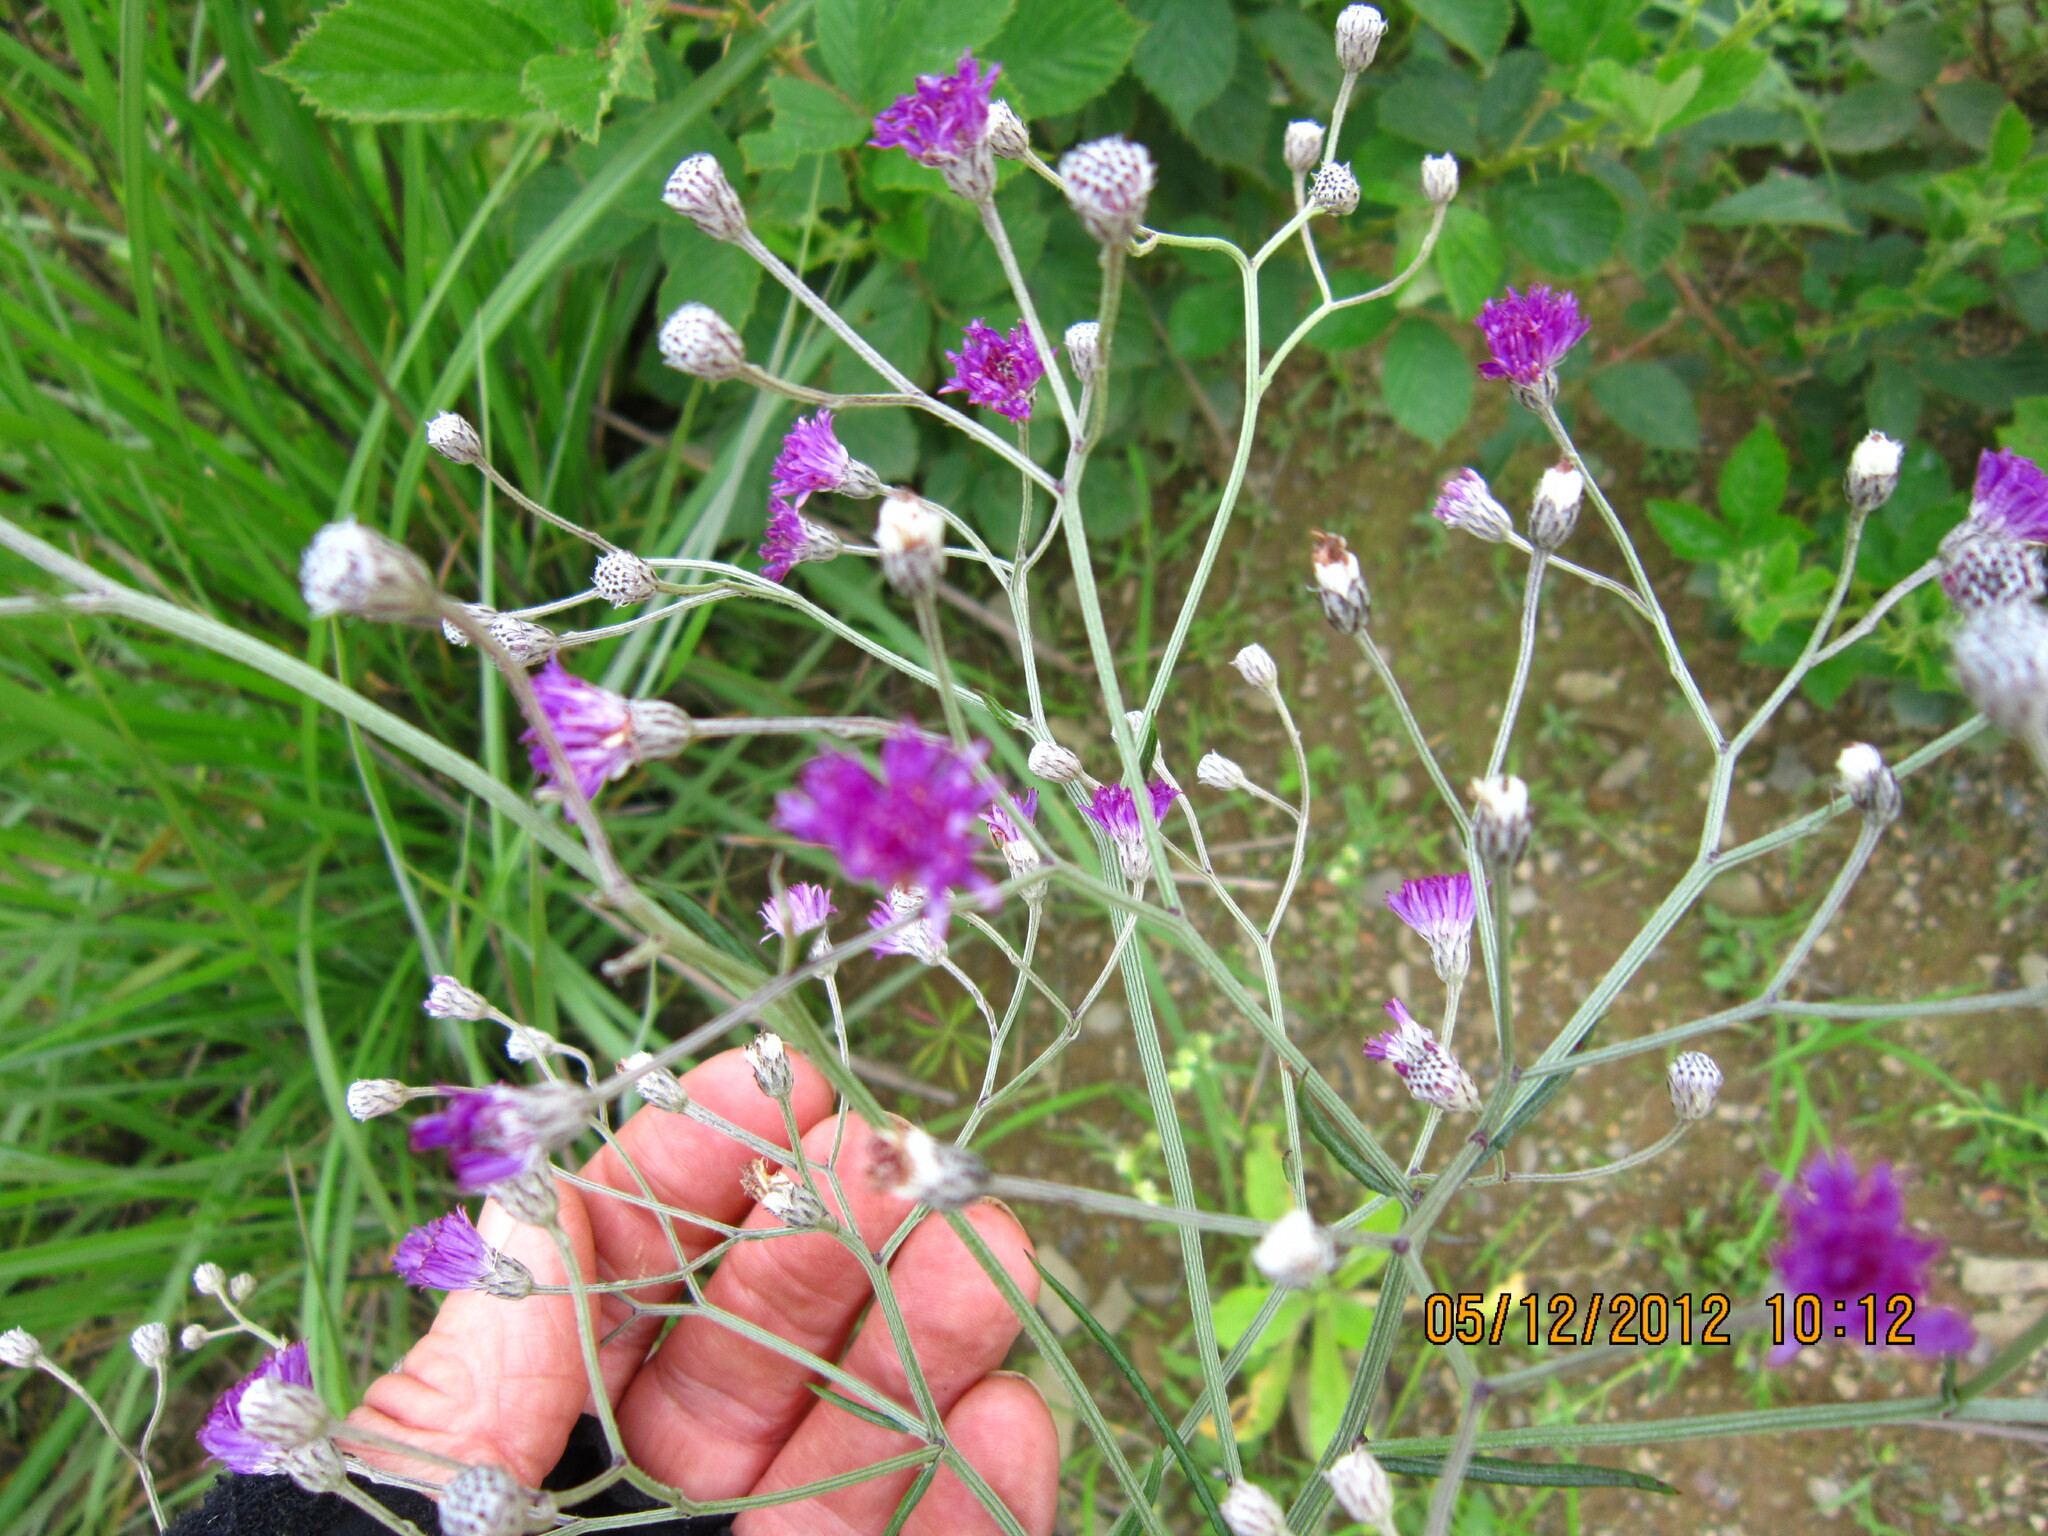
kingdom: Plantae
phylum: Tracheophyta
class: Magnoliopsida
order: Asterales
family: Asteraceae
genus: Hilliardiella
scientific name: Hilliardiella capensis
